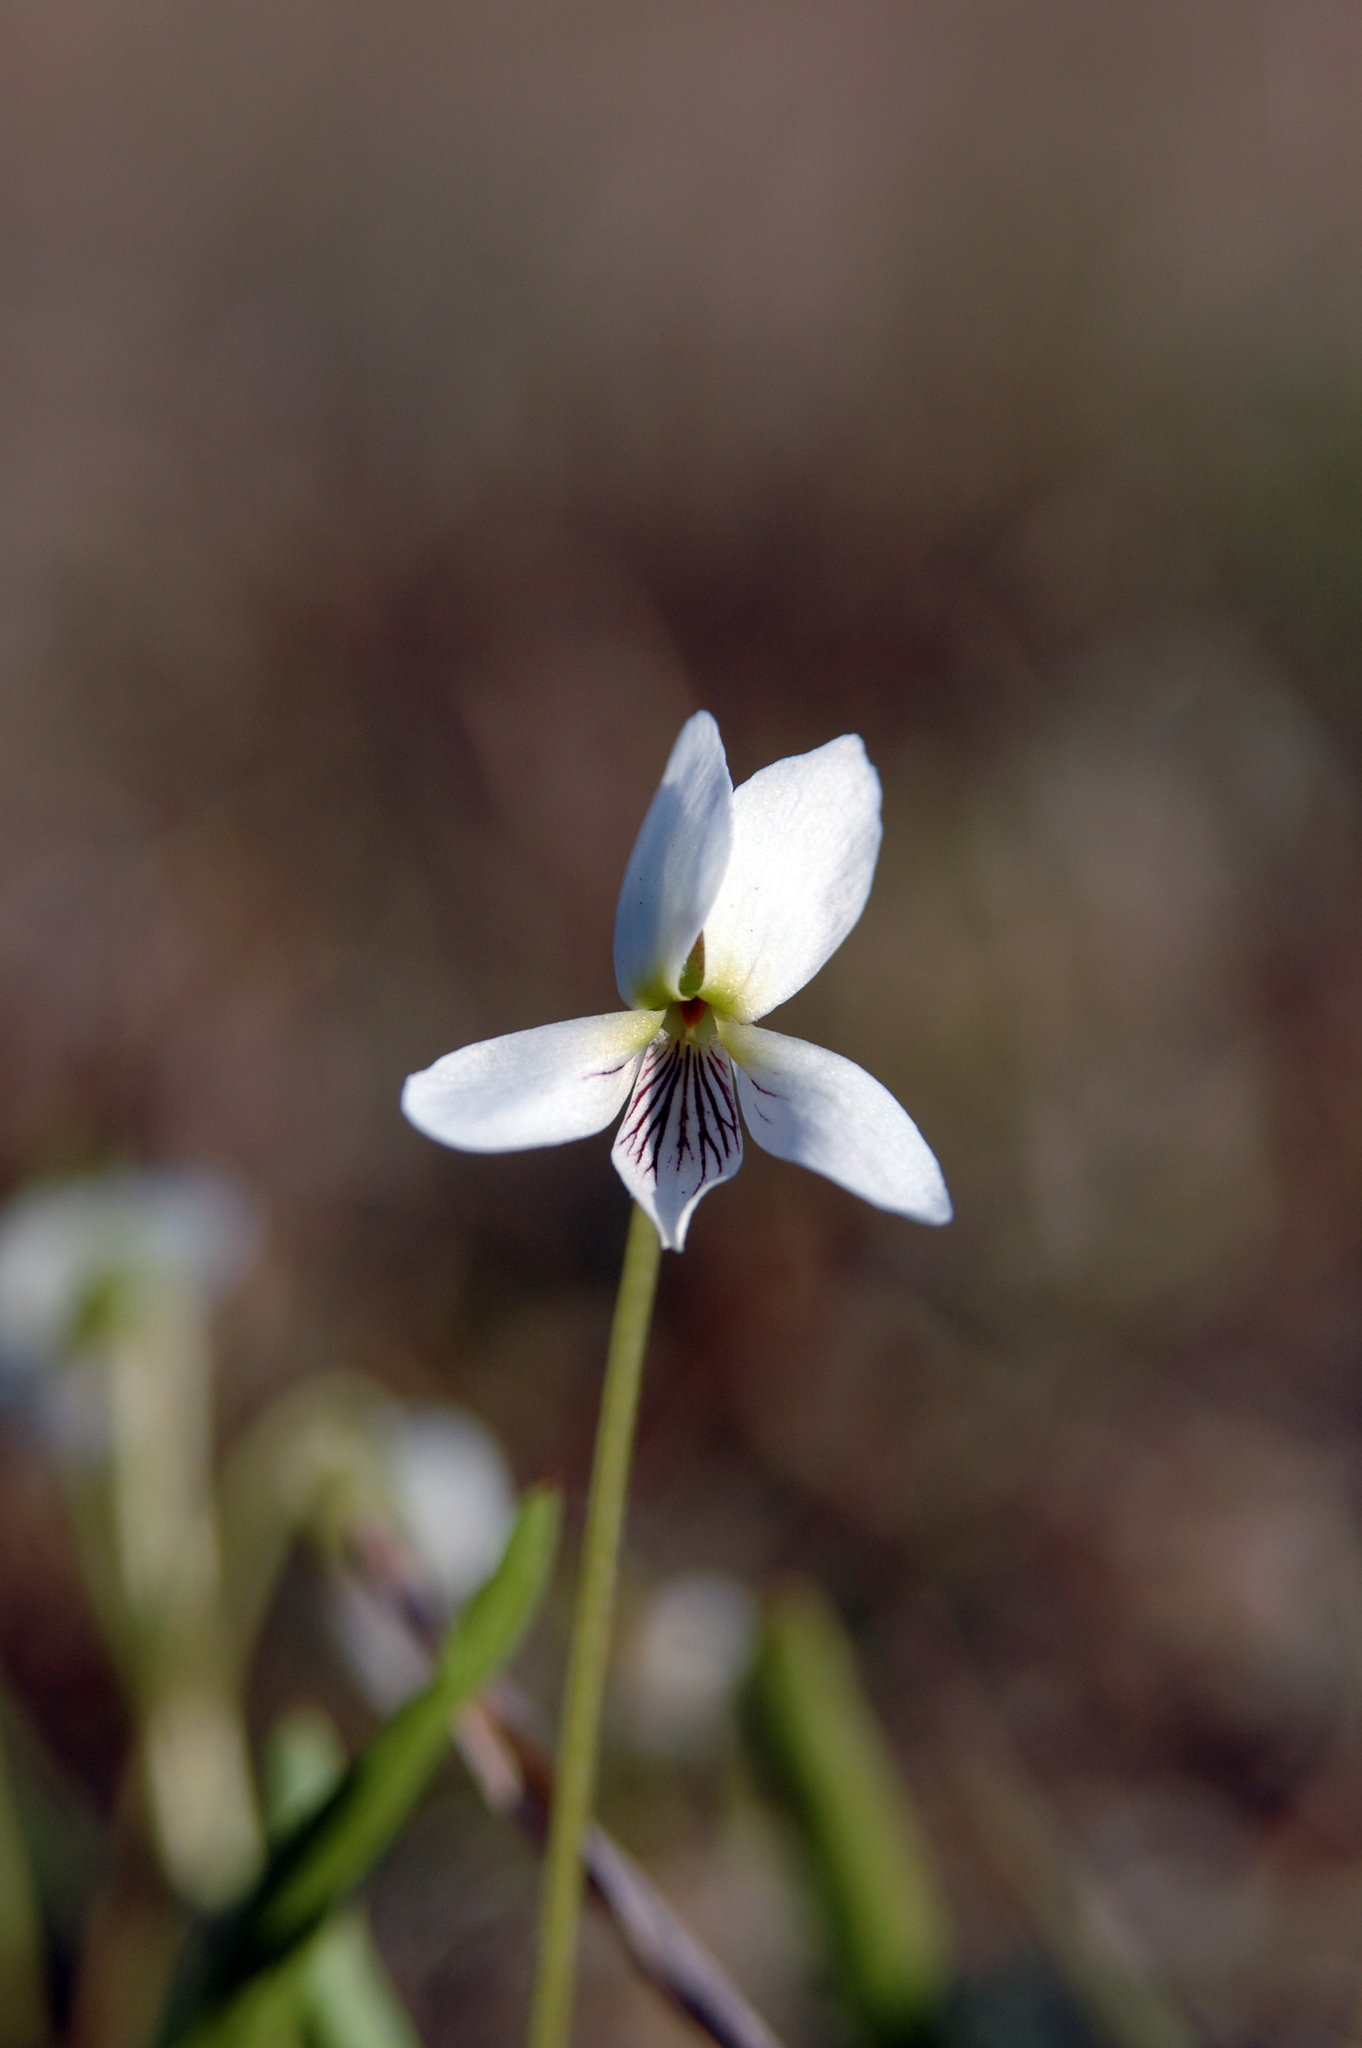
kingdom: Plantae
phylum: Tracheophyta
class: Magnoliopsida
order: Malpighiales
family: Violaceae
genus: Viola
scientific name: Viola lanceolata
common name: Bog white violet
